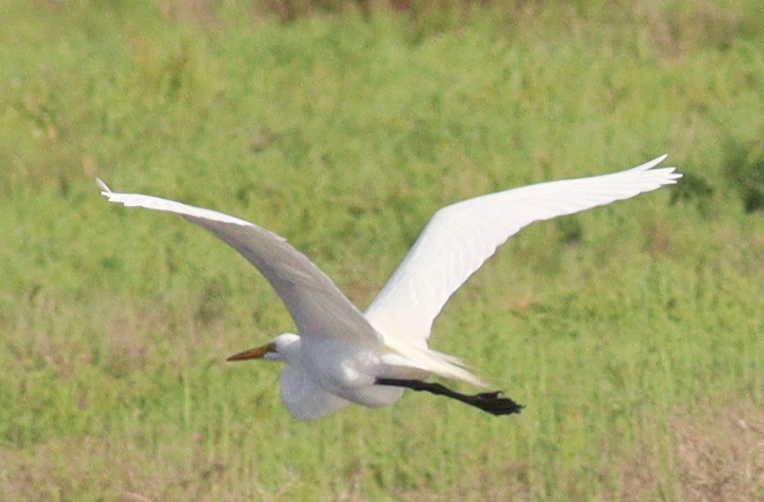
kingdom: Animalia
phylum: Chordata
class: Aves
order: Pelecaniformes
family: Ardeidae
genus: Ardea
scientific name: Ardea alba
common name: Great egret
